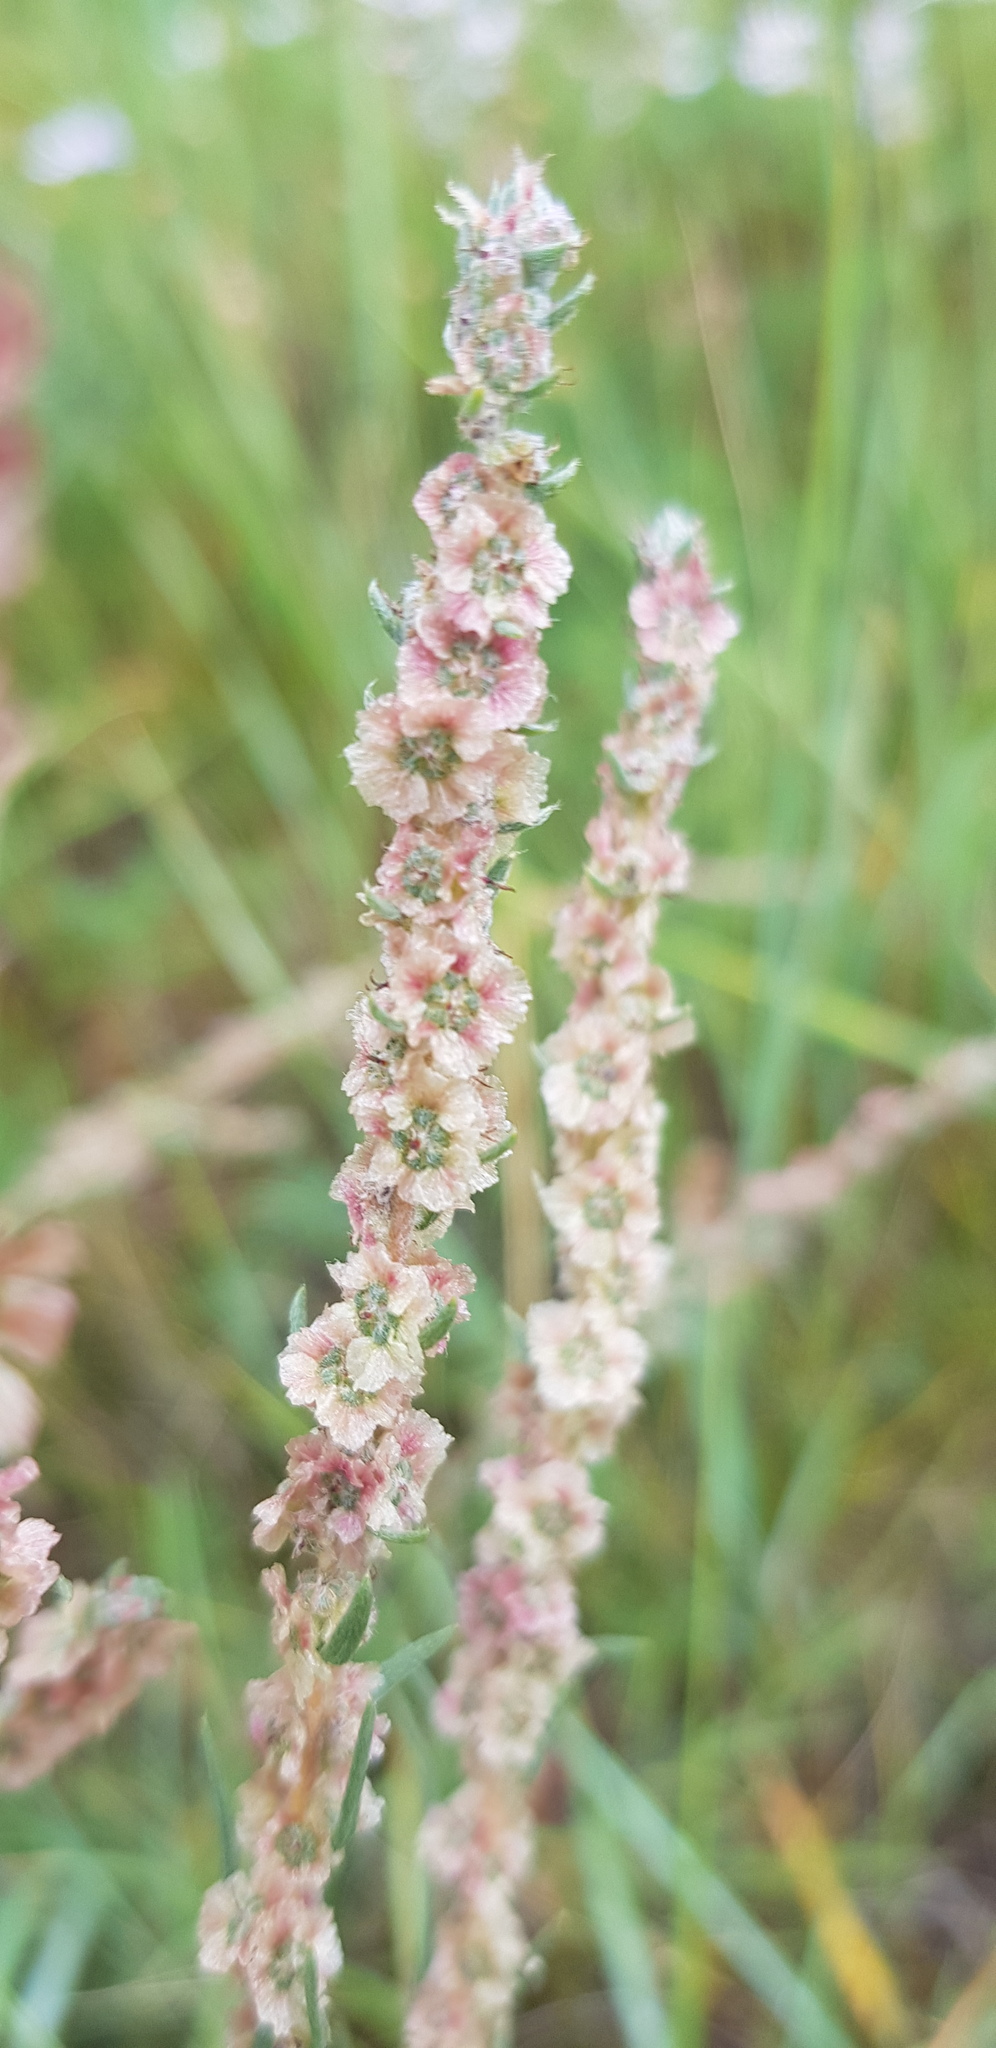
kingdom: Plantae
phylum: Tracheophyta
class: Magnoliopsida
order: Caryophyllales
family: Amaranthaceae
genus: Bassia
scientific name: Bassia prostrata
